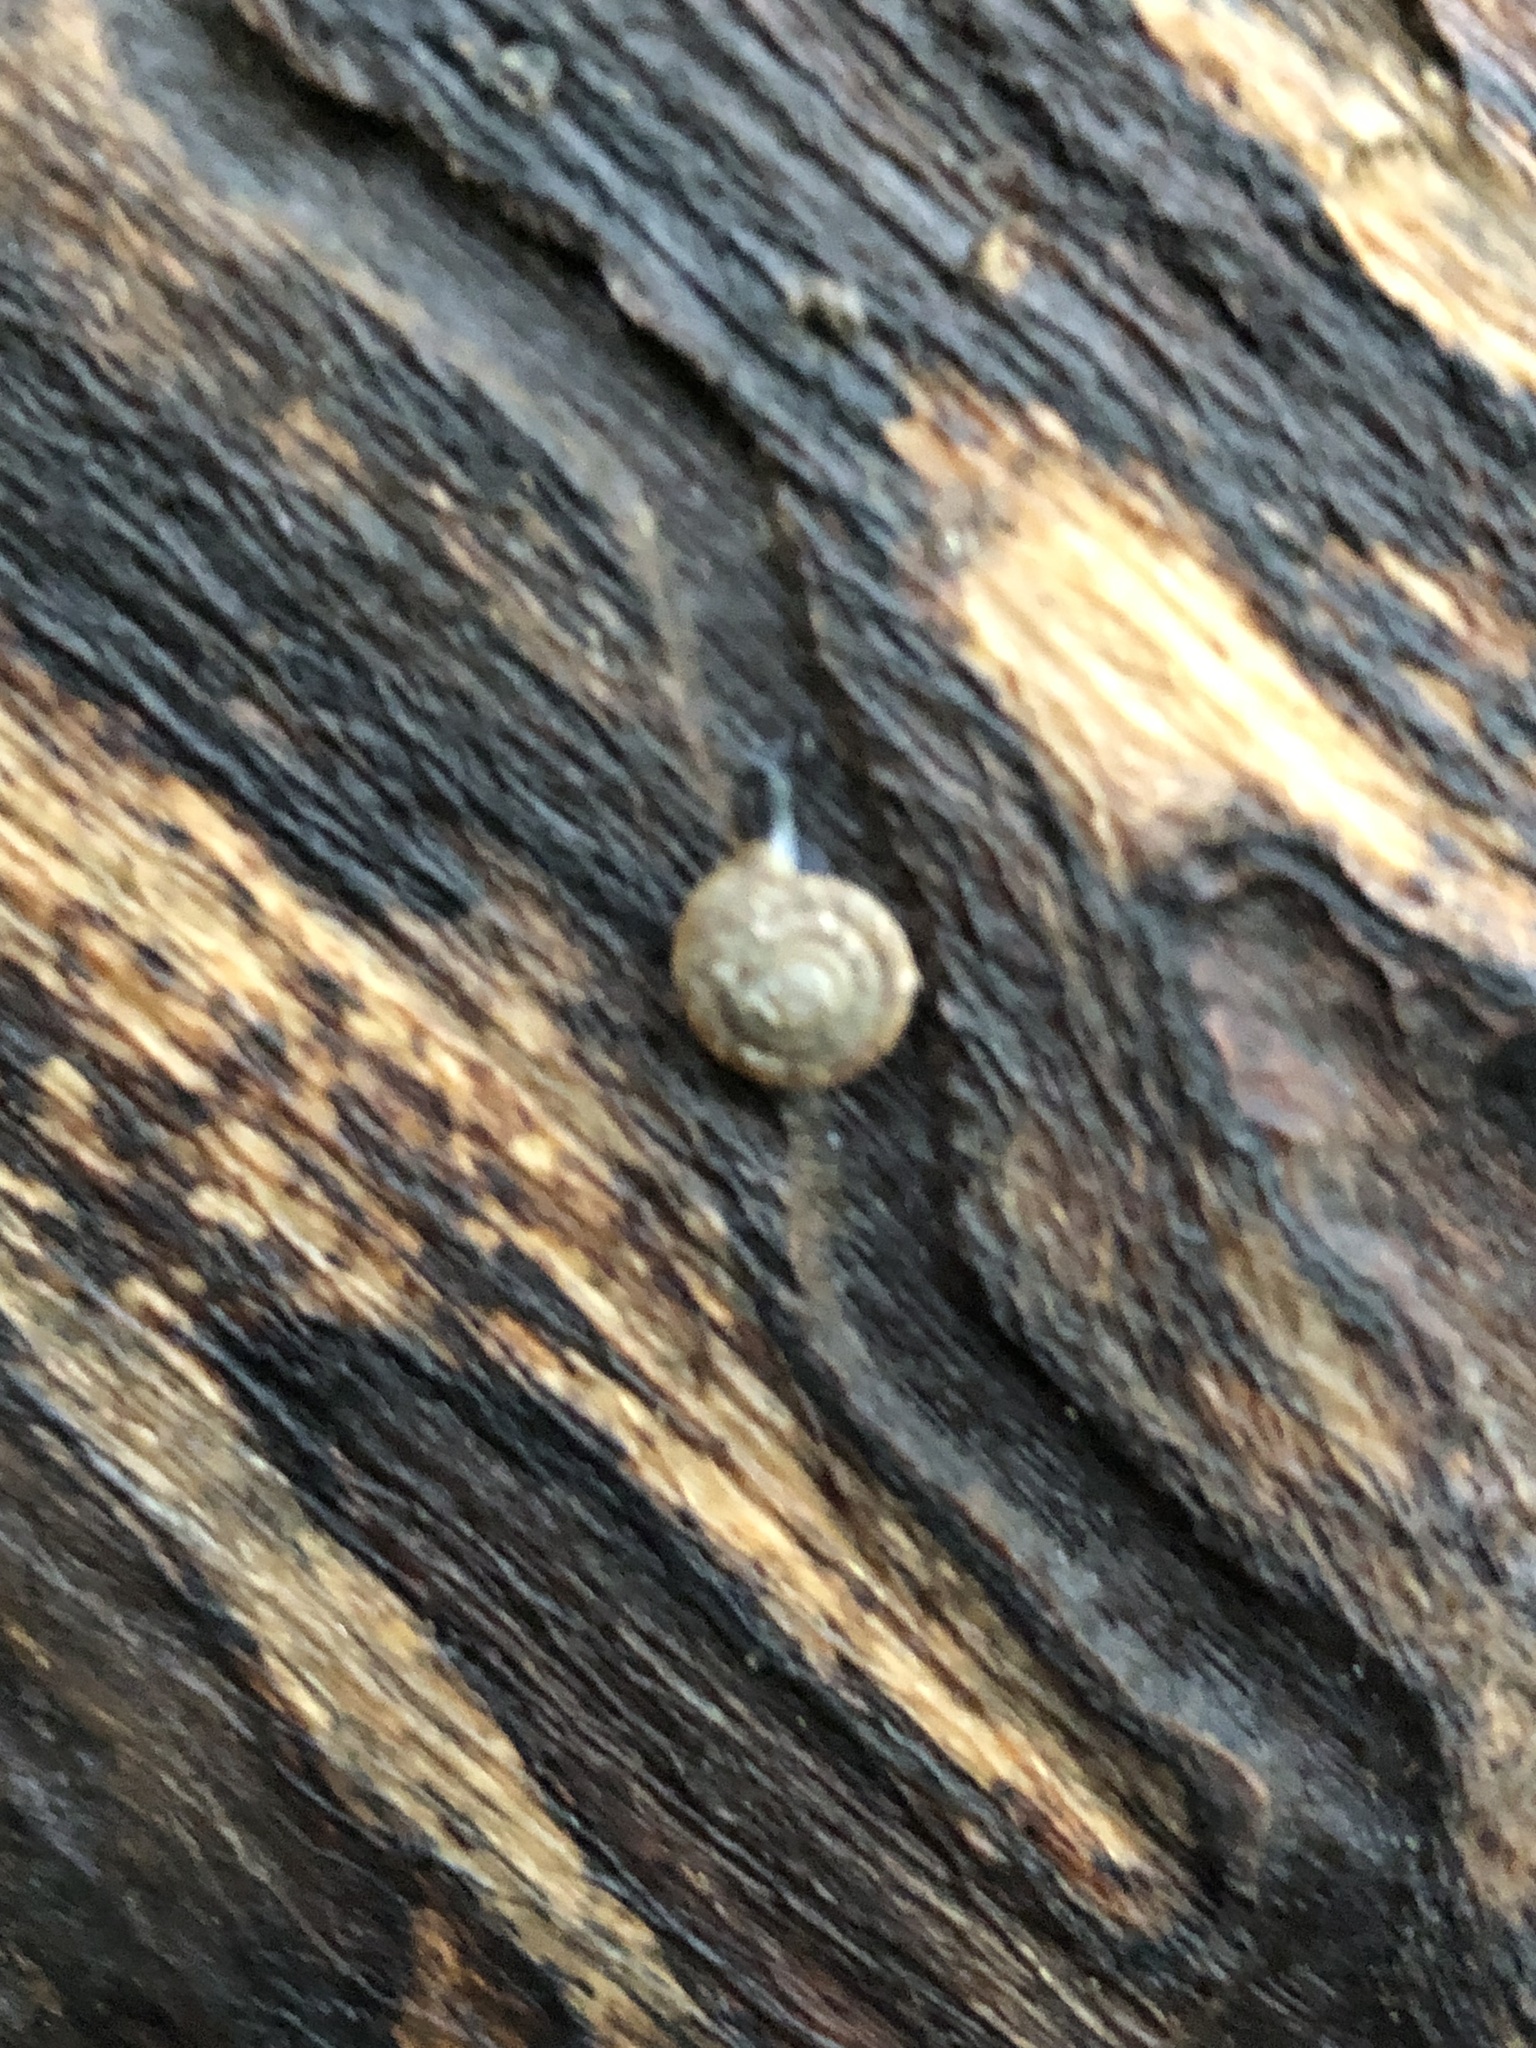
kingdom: Animalia
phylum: Mollusca
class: Gastropoda
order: Stylommatophora
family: Discidae
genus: Discus
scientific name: Discus rotundatus
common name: Rounded snail
